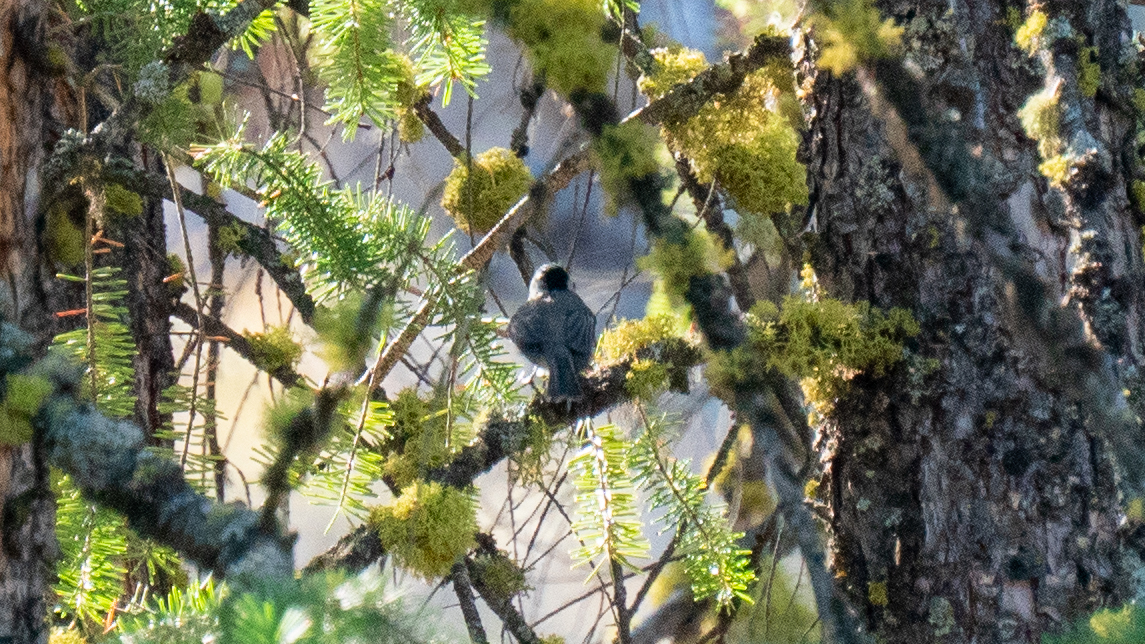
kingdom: Animalia
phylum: Chordata
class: Aves
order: Passeriformes
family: Paridae
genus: Poecile
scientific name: Poecile gambeli
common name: Mountain chickadee
